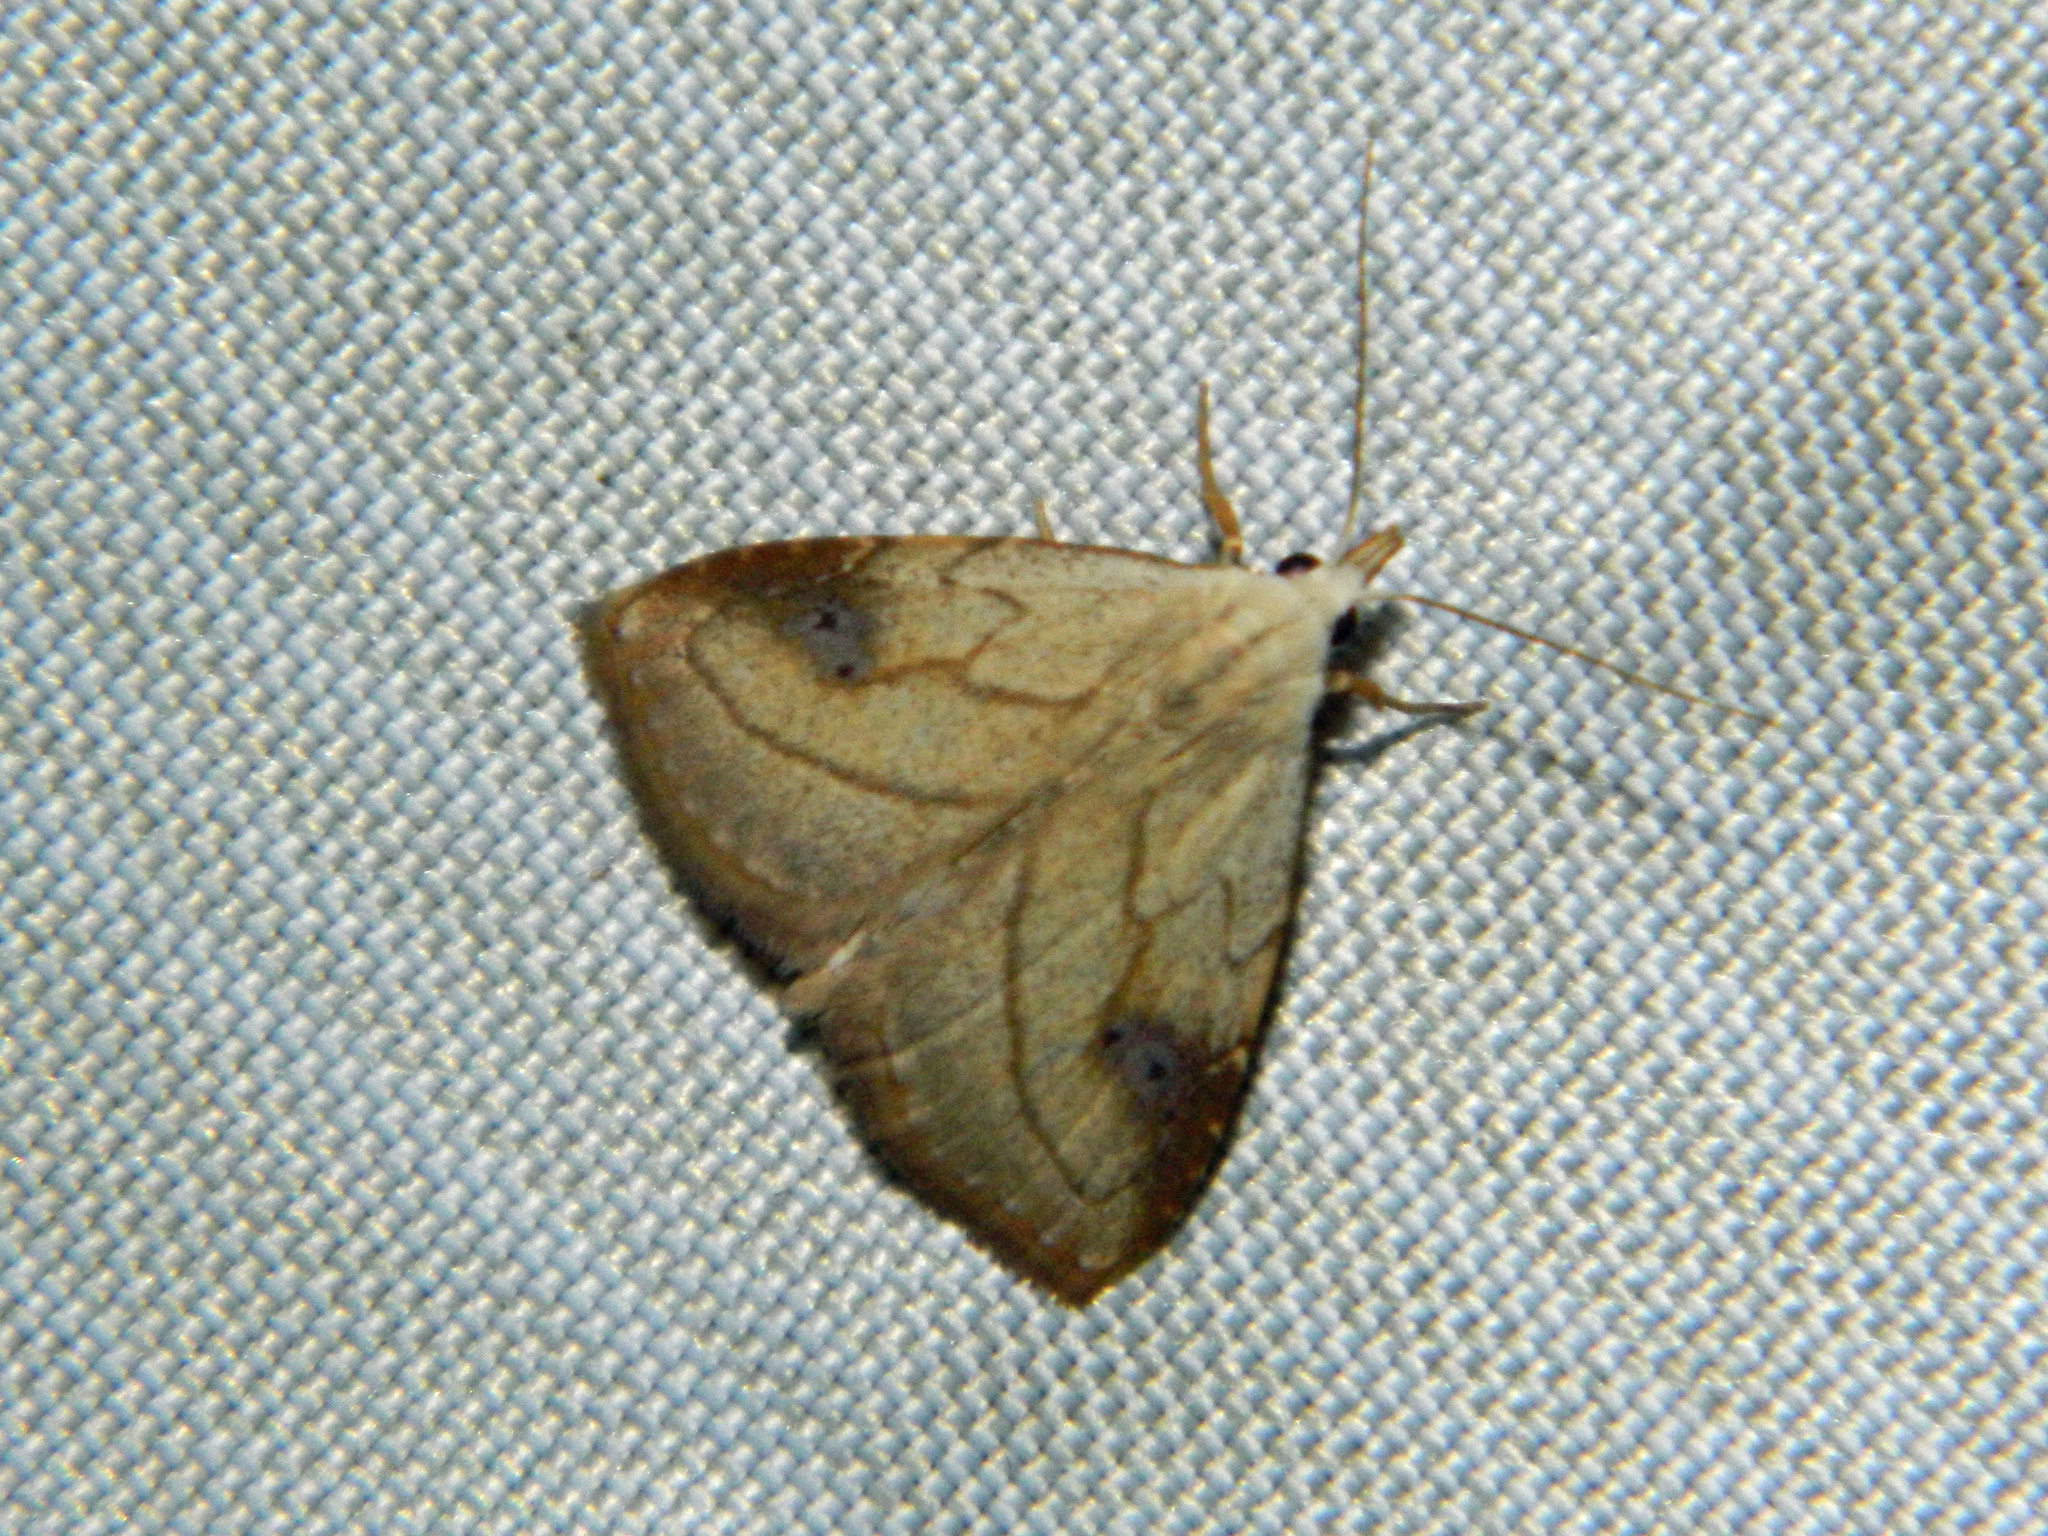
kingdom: Animalia
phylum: Arthropoda
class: Insecta
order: Lepidoptera
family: Erebidae
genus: Rivula
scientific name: Rivula propinqualis
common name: Spotted grass moth
